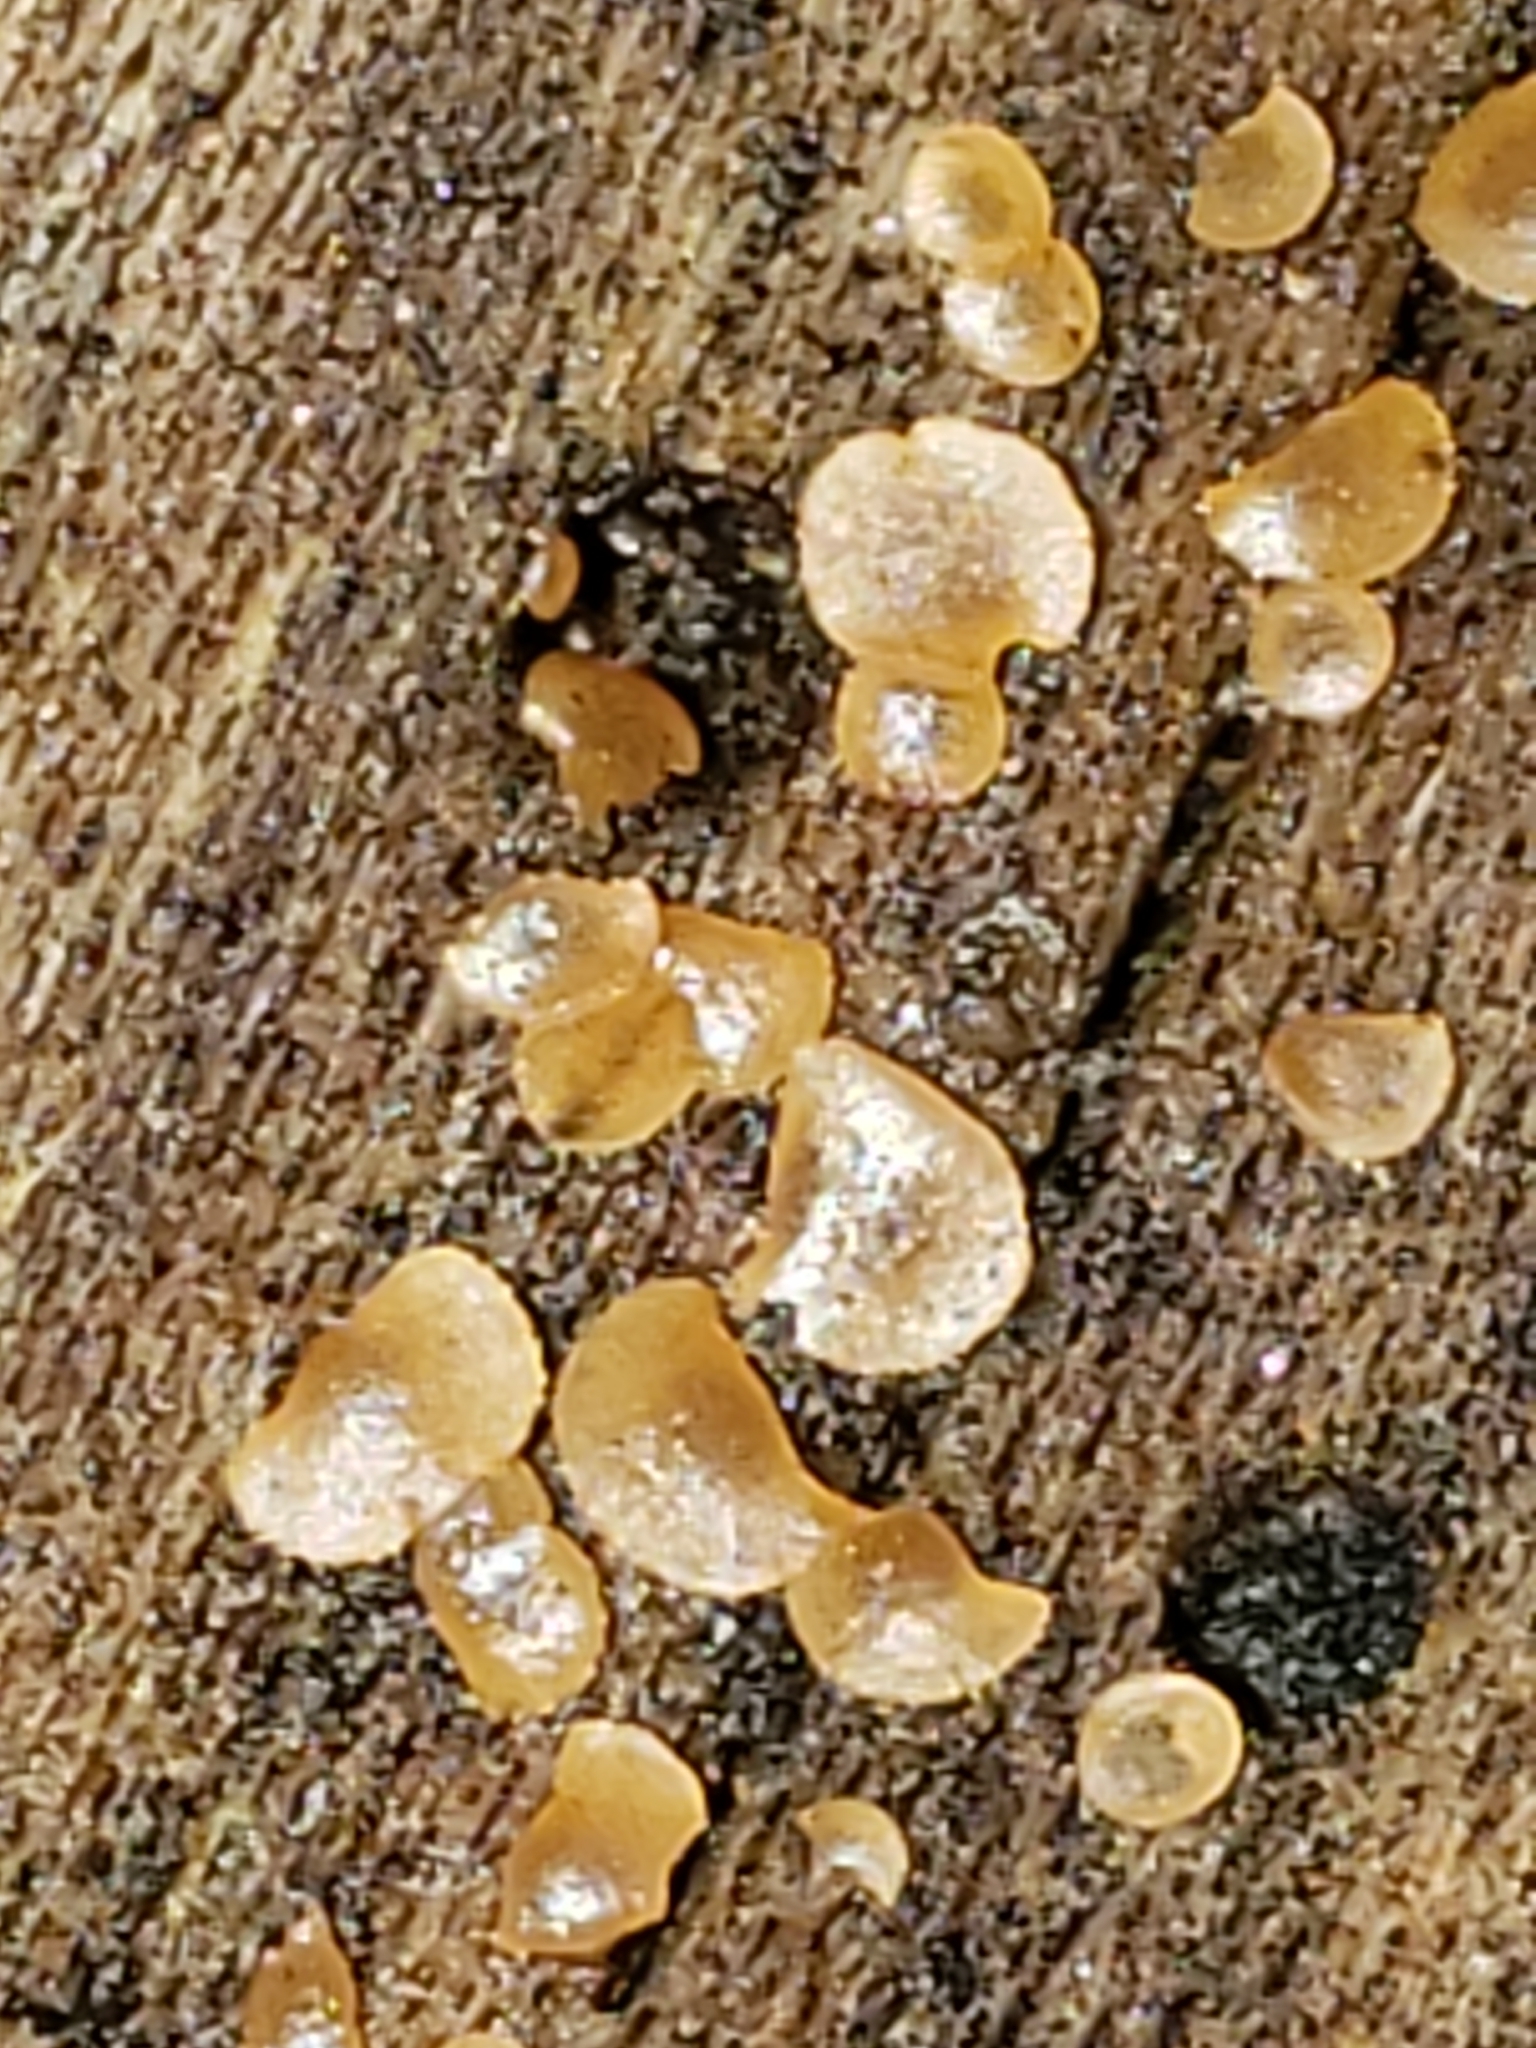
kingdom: Fungi
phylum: Ascomycota
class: Orbiliomycetes
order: Orbiliales
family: Orbiliaceae
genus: Orbilia
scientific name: Orbilia
